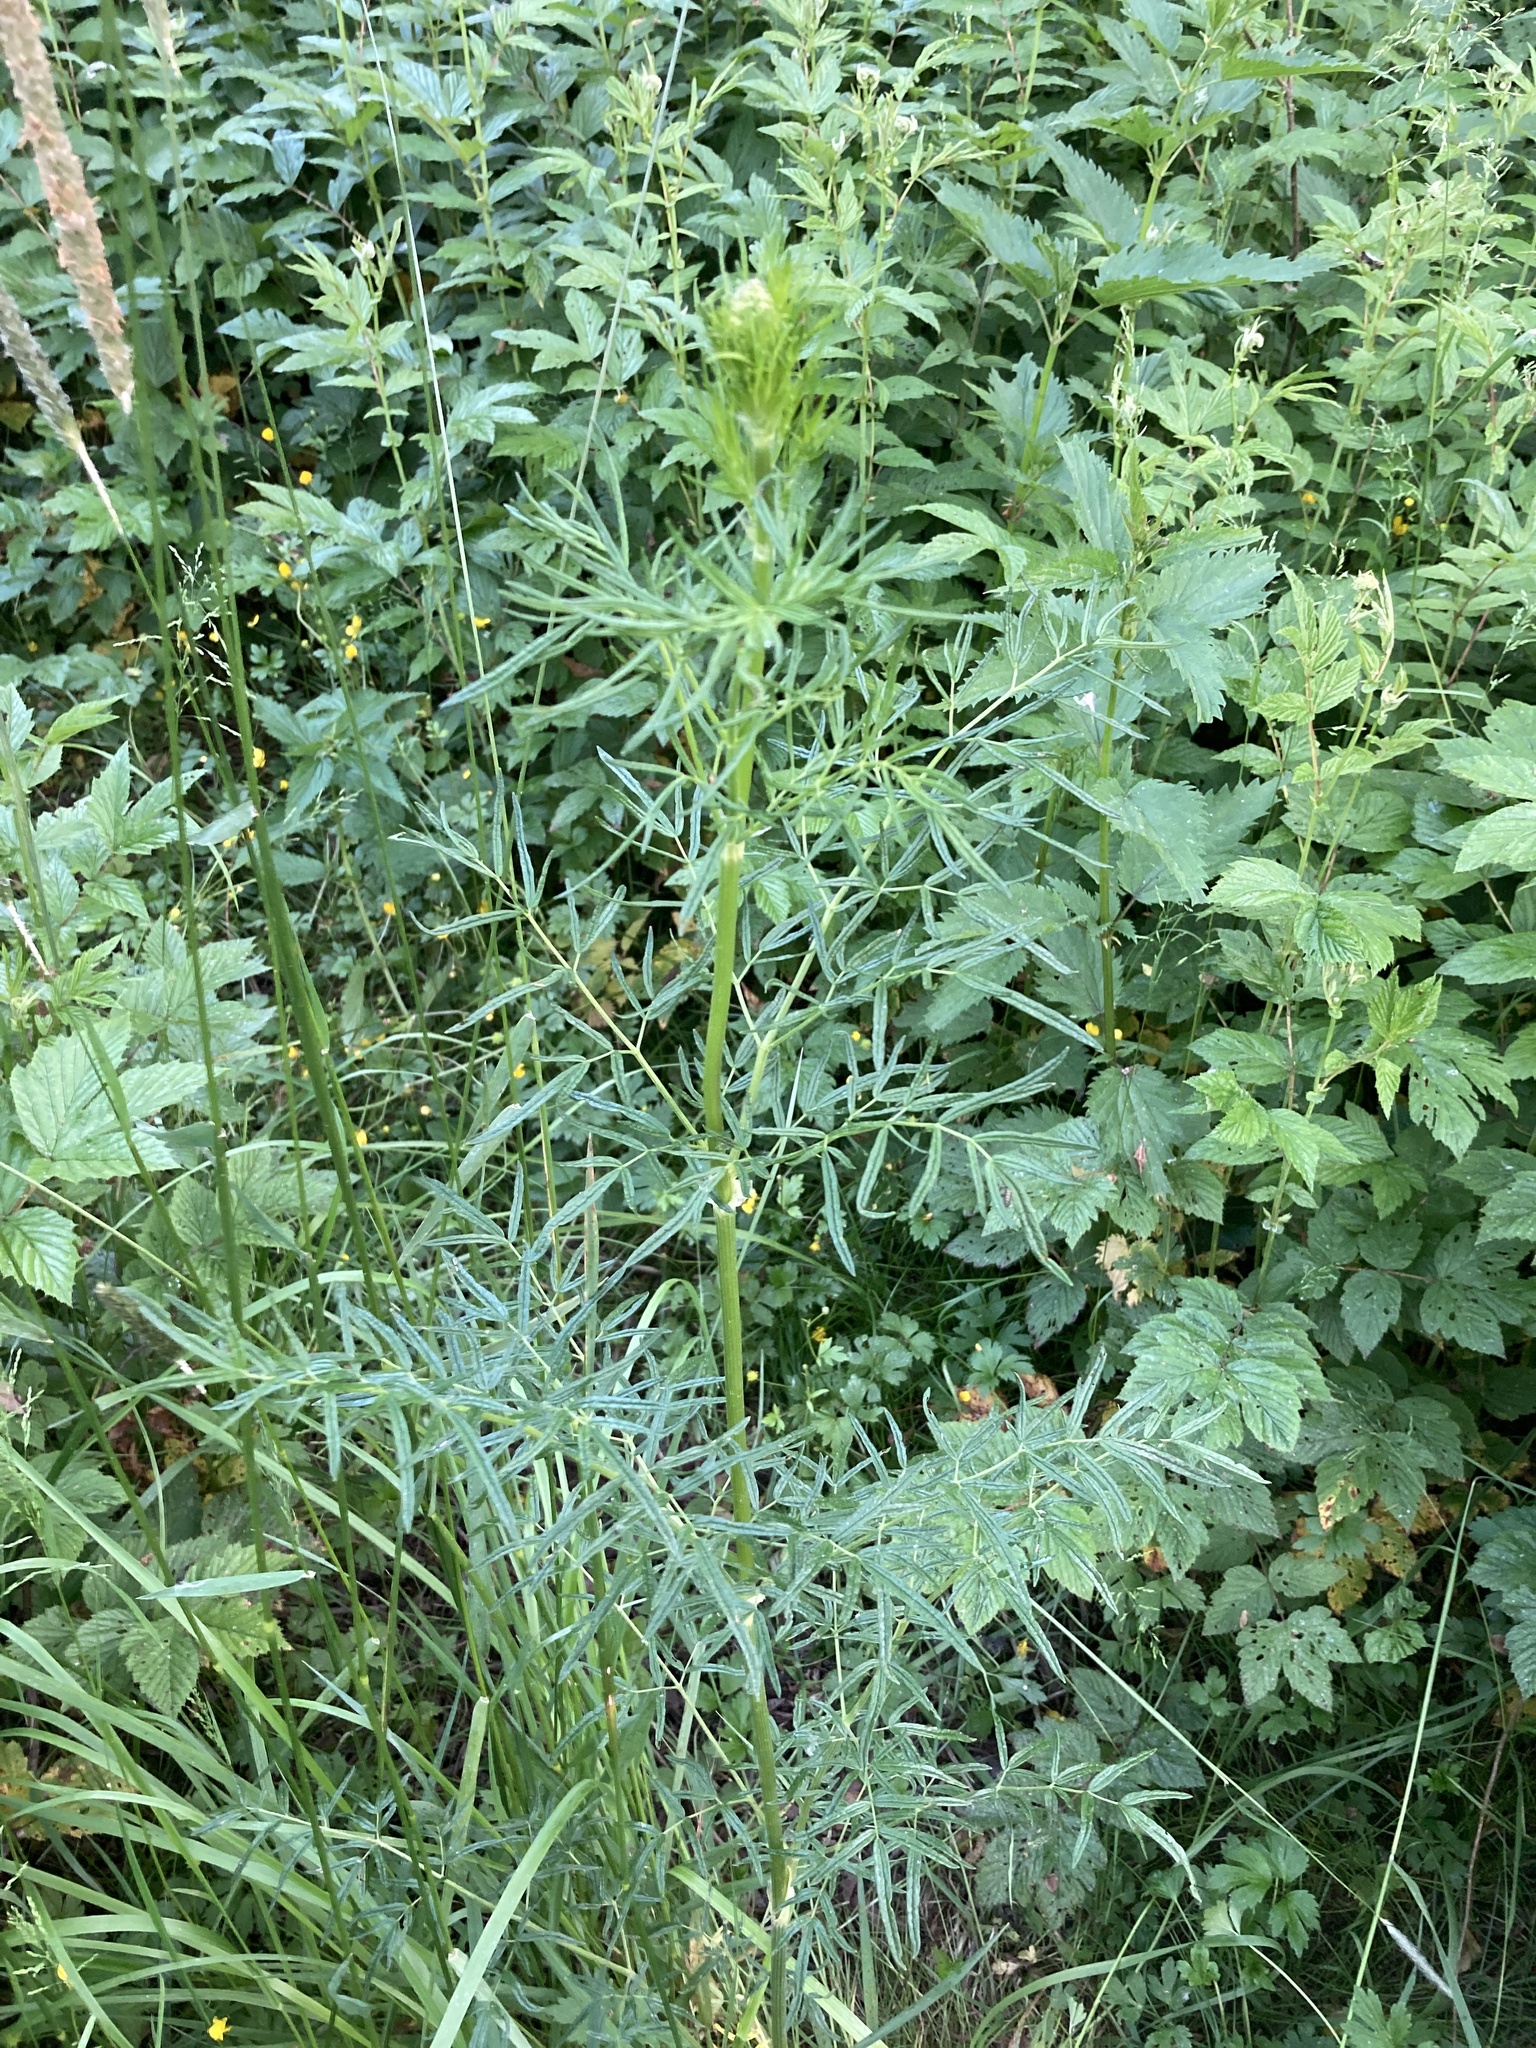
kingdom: Plantae
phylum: Tracheophyta
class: Magnoliopsida
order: Ranunculales
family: Ranunculaceae
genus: Thalictrum
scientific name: Thalictrum lucidum
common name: Shining meadow-rue
